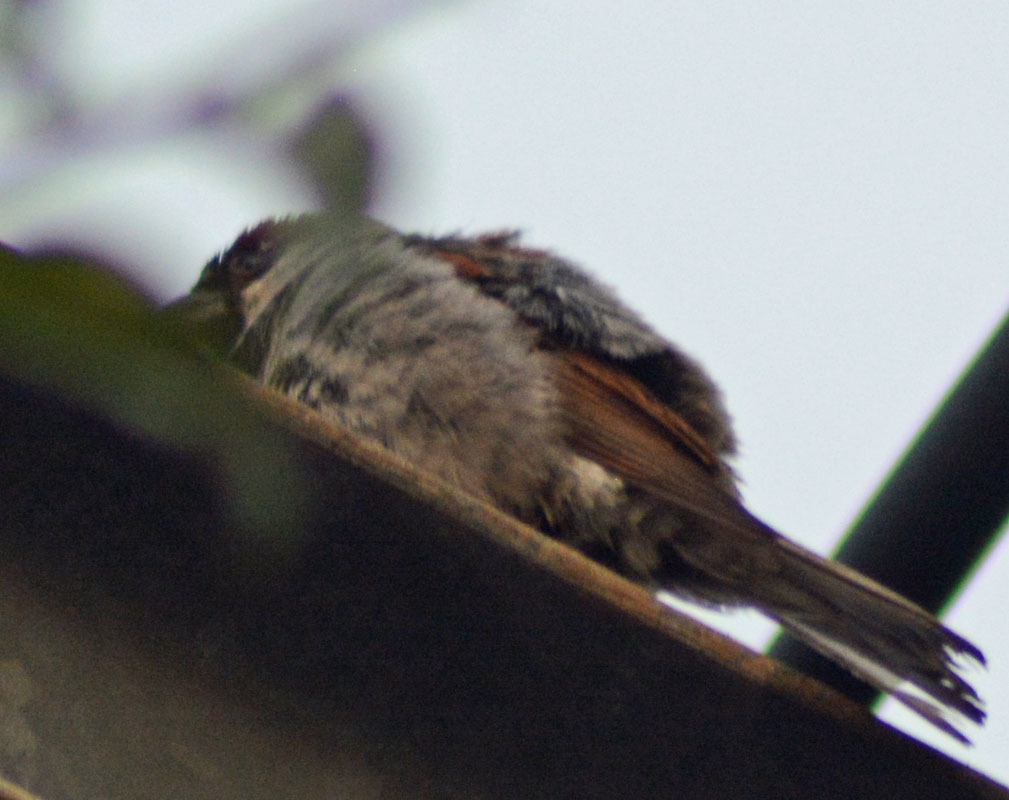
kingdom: Animalia
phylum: Chordata
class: Aves
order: Passeriformes
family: Passeridae
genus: Passer
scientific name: Passer domesticus
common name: House sparrow
